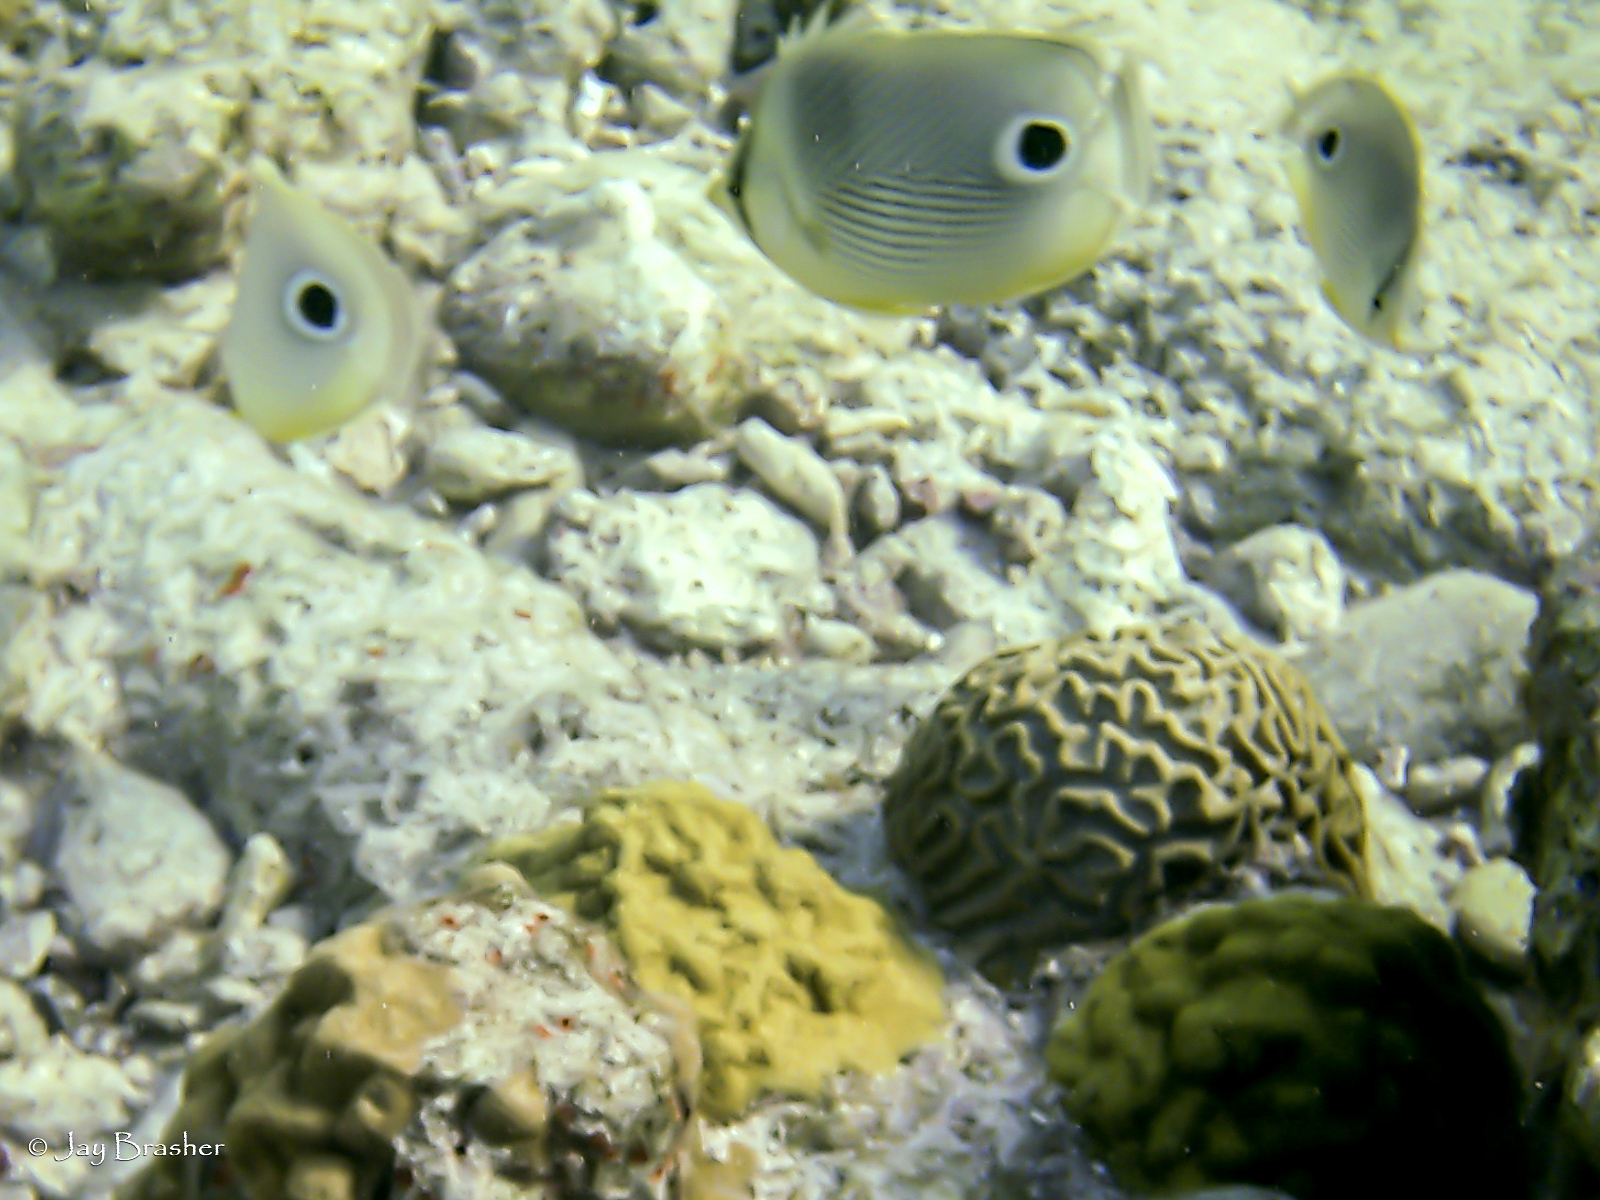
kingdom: Animalia
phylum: Chordata
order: Perciformes
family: Chaetodontidae
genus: Chaetodon
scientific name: Chaetodon capistratus
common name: Kete
